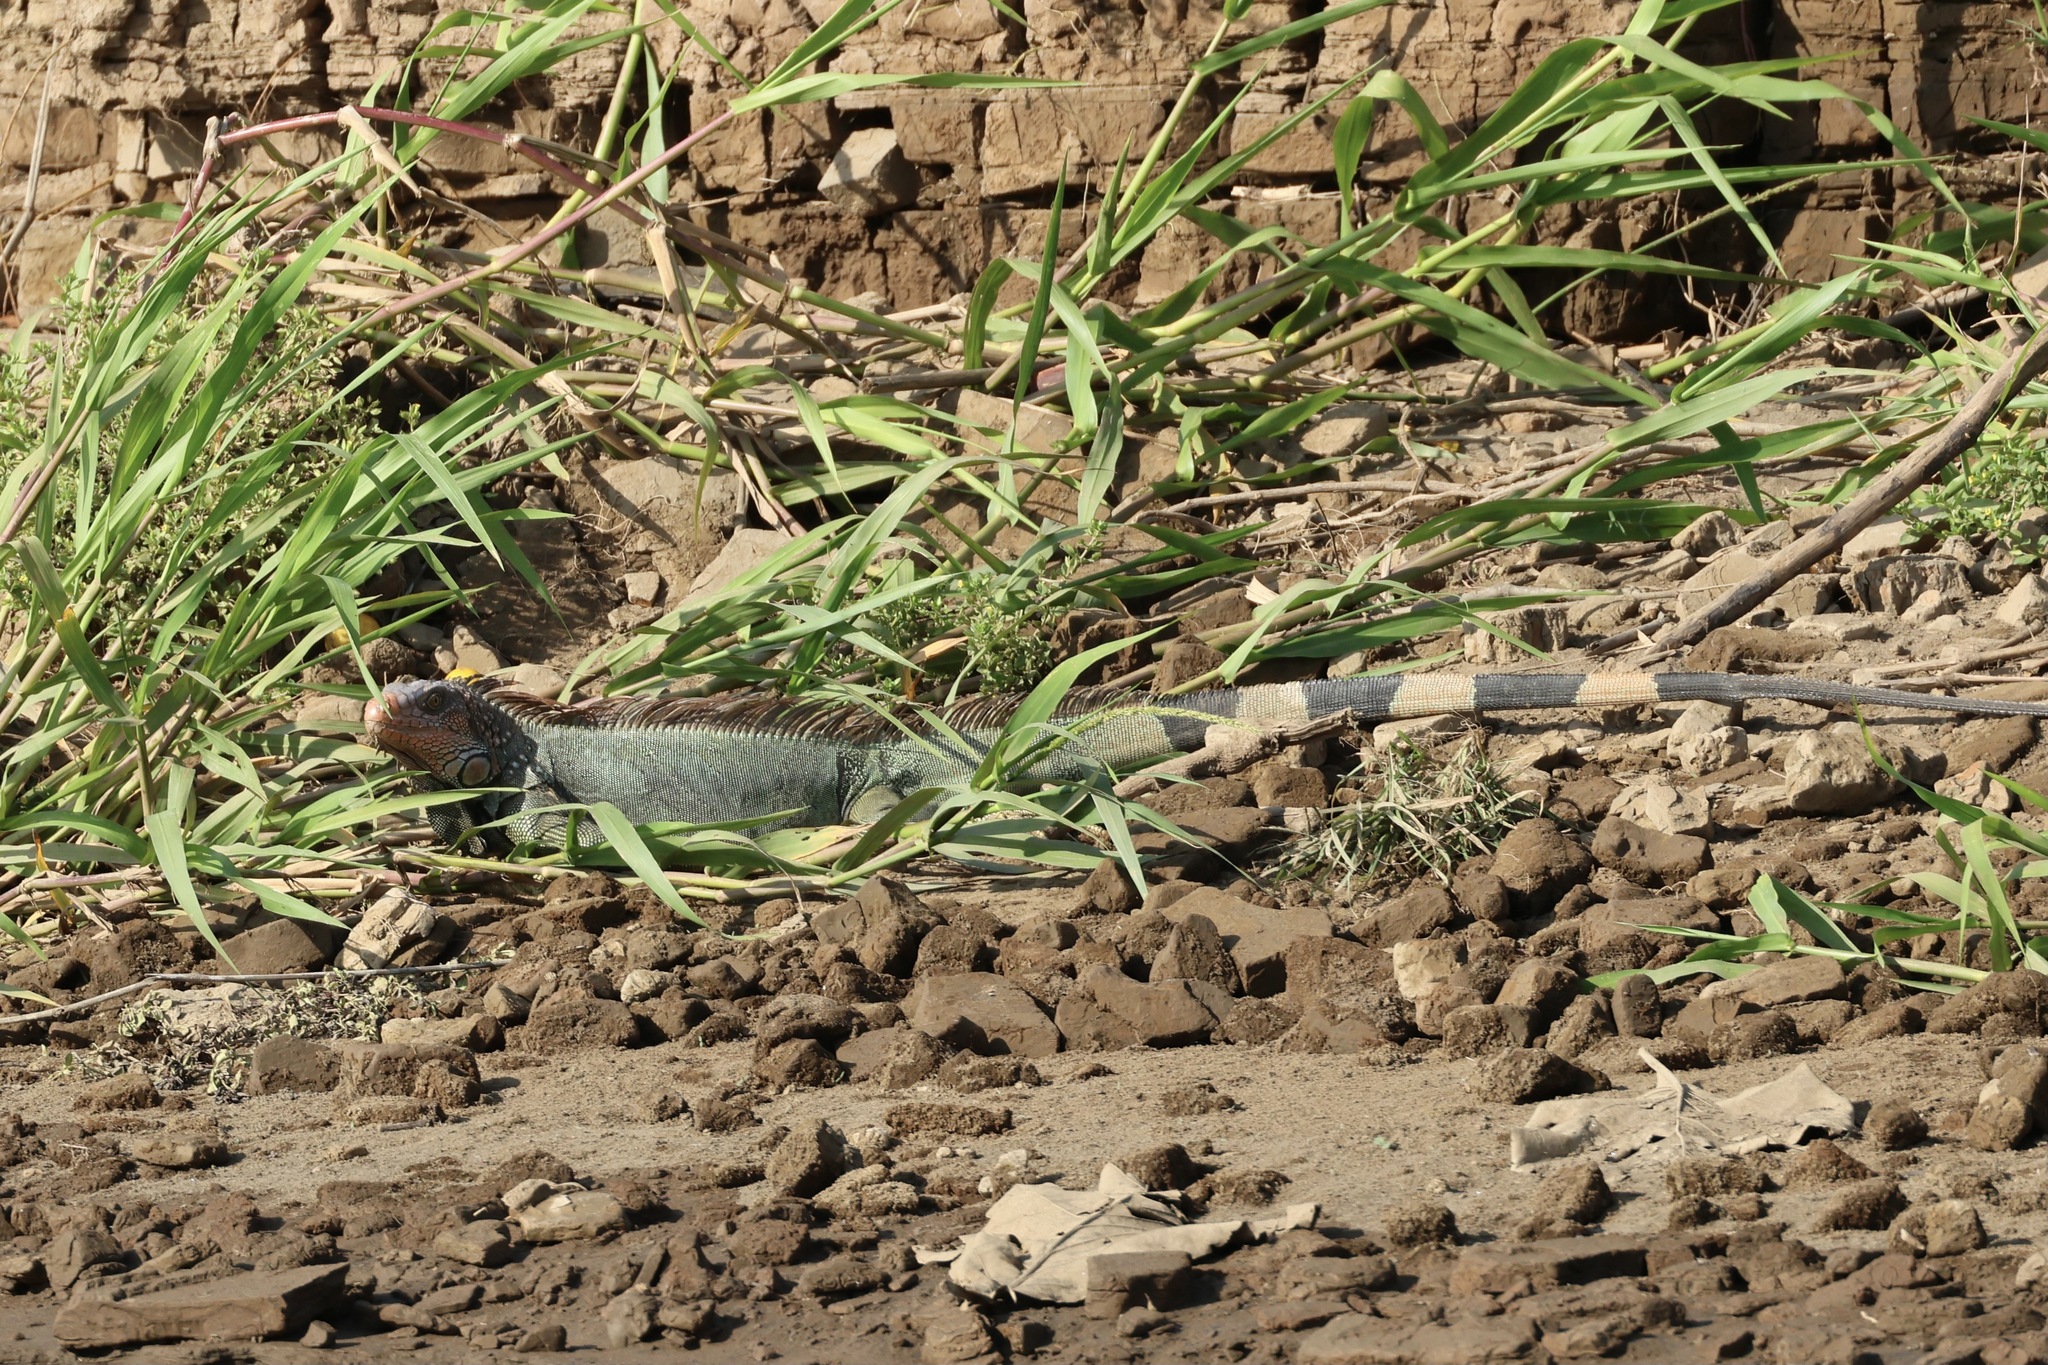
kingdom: Animalia
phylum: Chordata
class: Squamata
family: Iguanidae
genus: Iguana
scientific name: Iguana iguana
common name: Green iguana
